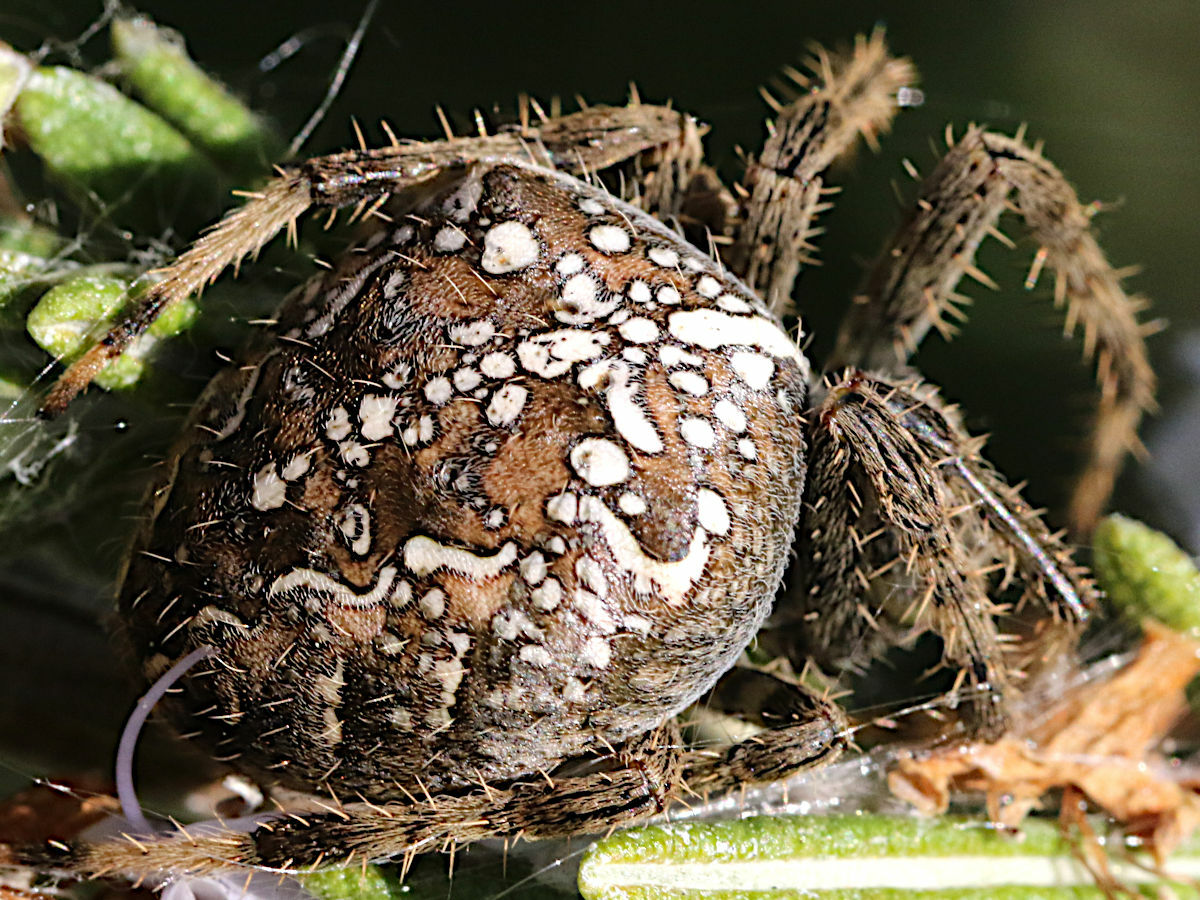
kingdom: Animalia
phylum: Arthropoda
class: Arachnida
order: Araneae
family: Araneidae
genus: Araneus
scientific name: Araneus diadematus
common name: Cross orbweaver
